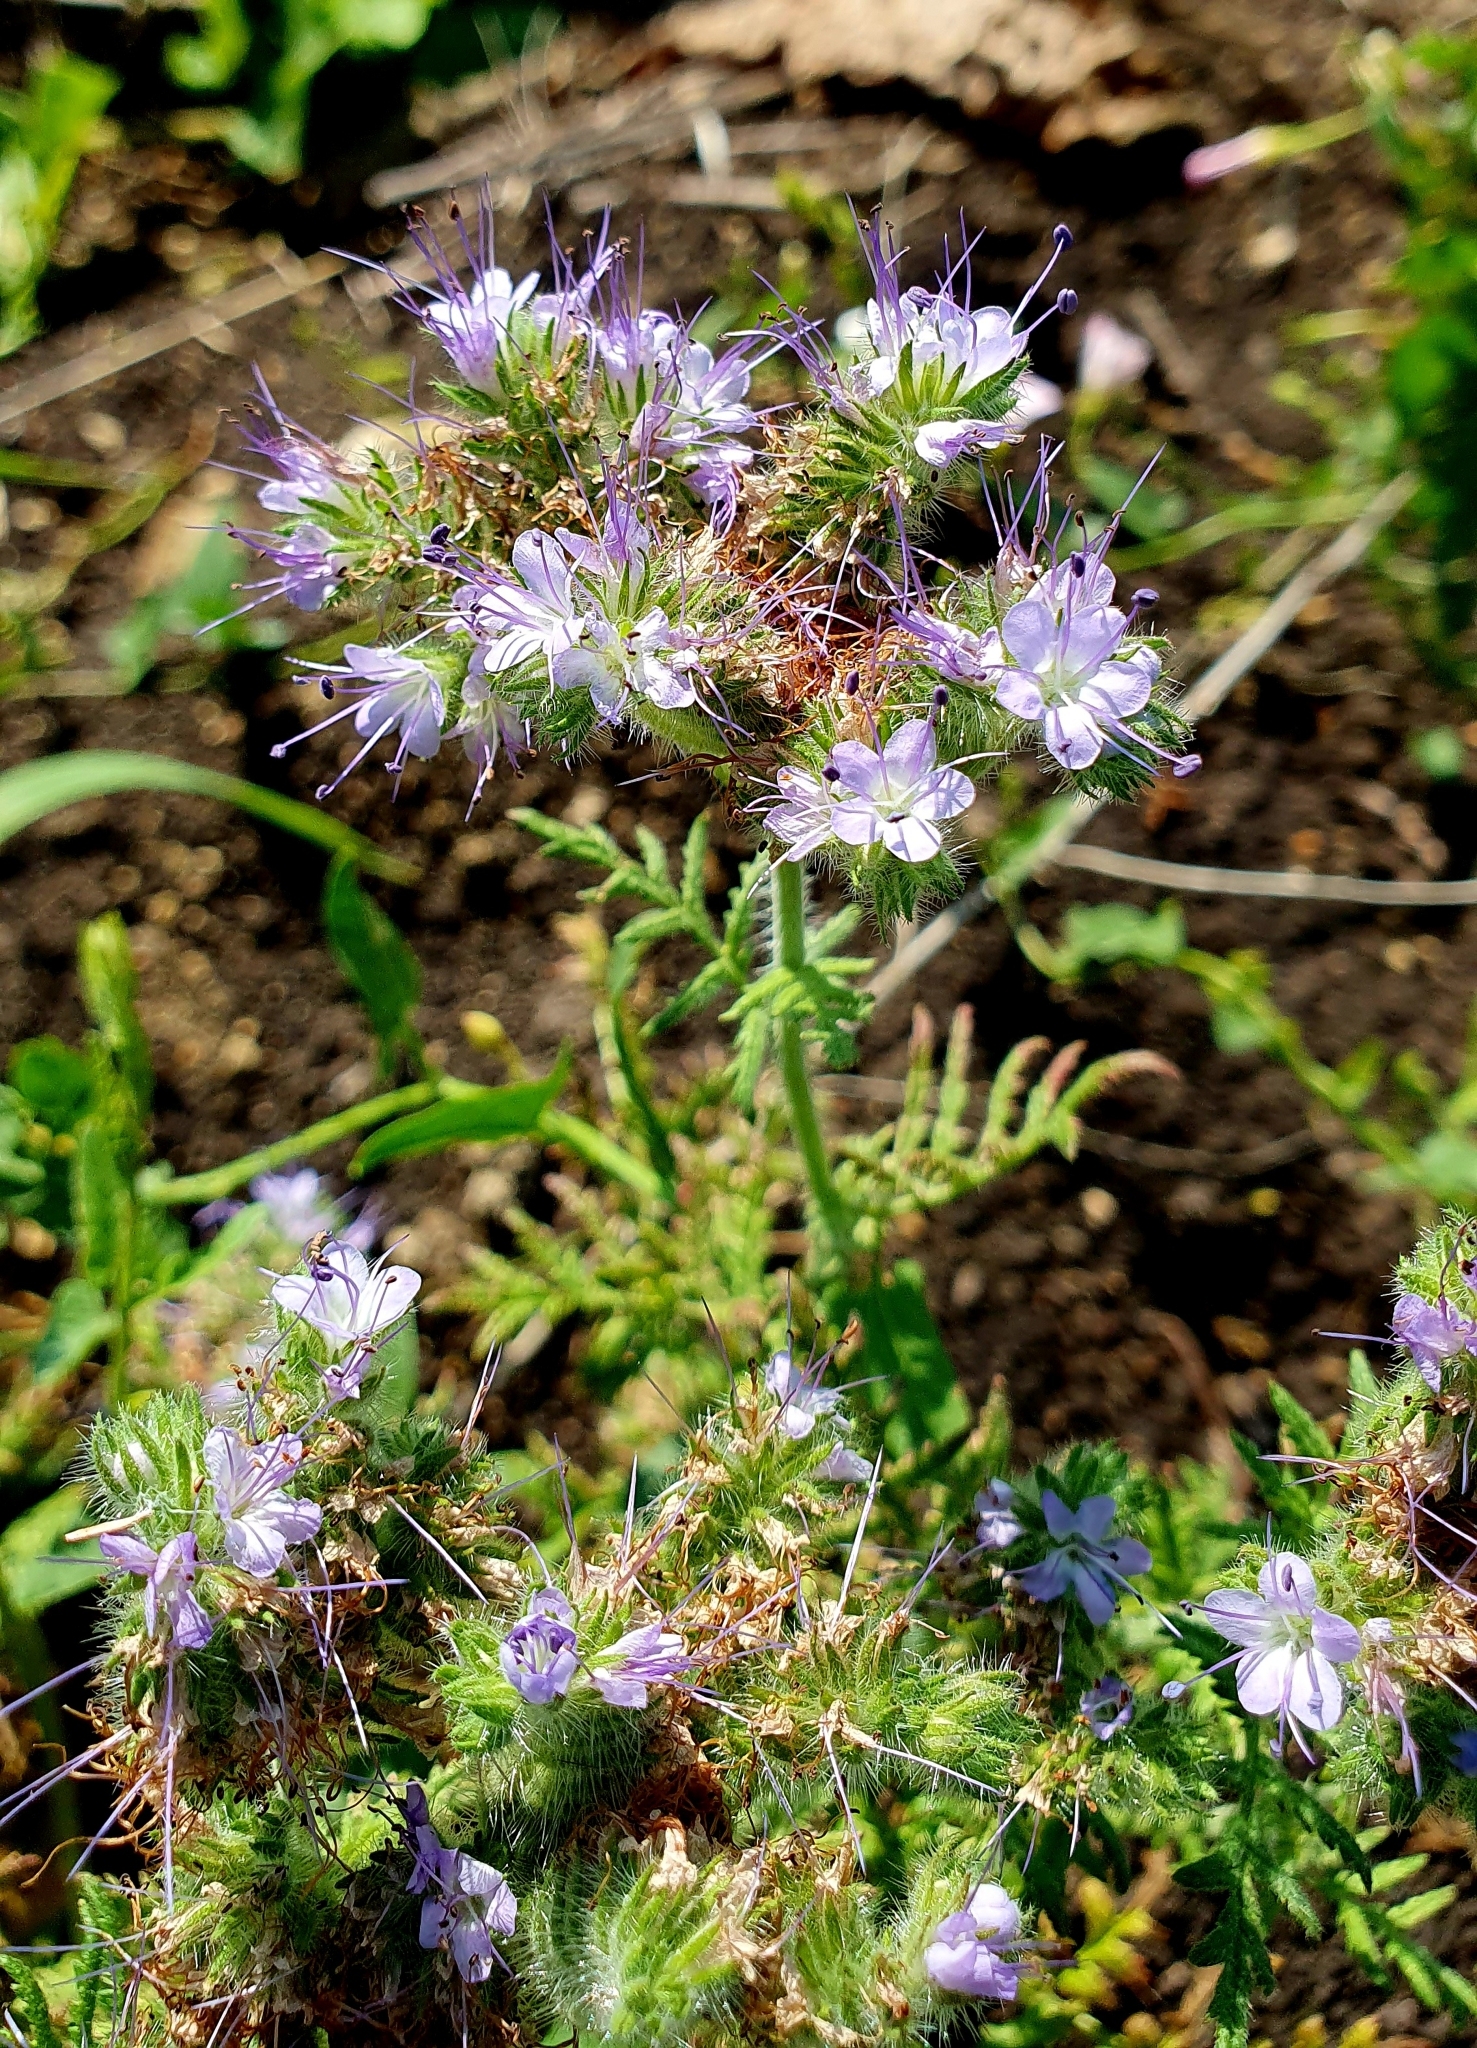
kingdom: Plantae
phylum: Tracheophyta
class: Magnoliopsida
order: Boraginales
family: Hydrophyllaceae
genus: Phacelia
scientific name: Phacelia tanacetifolia
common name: Phacelia
